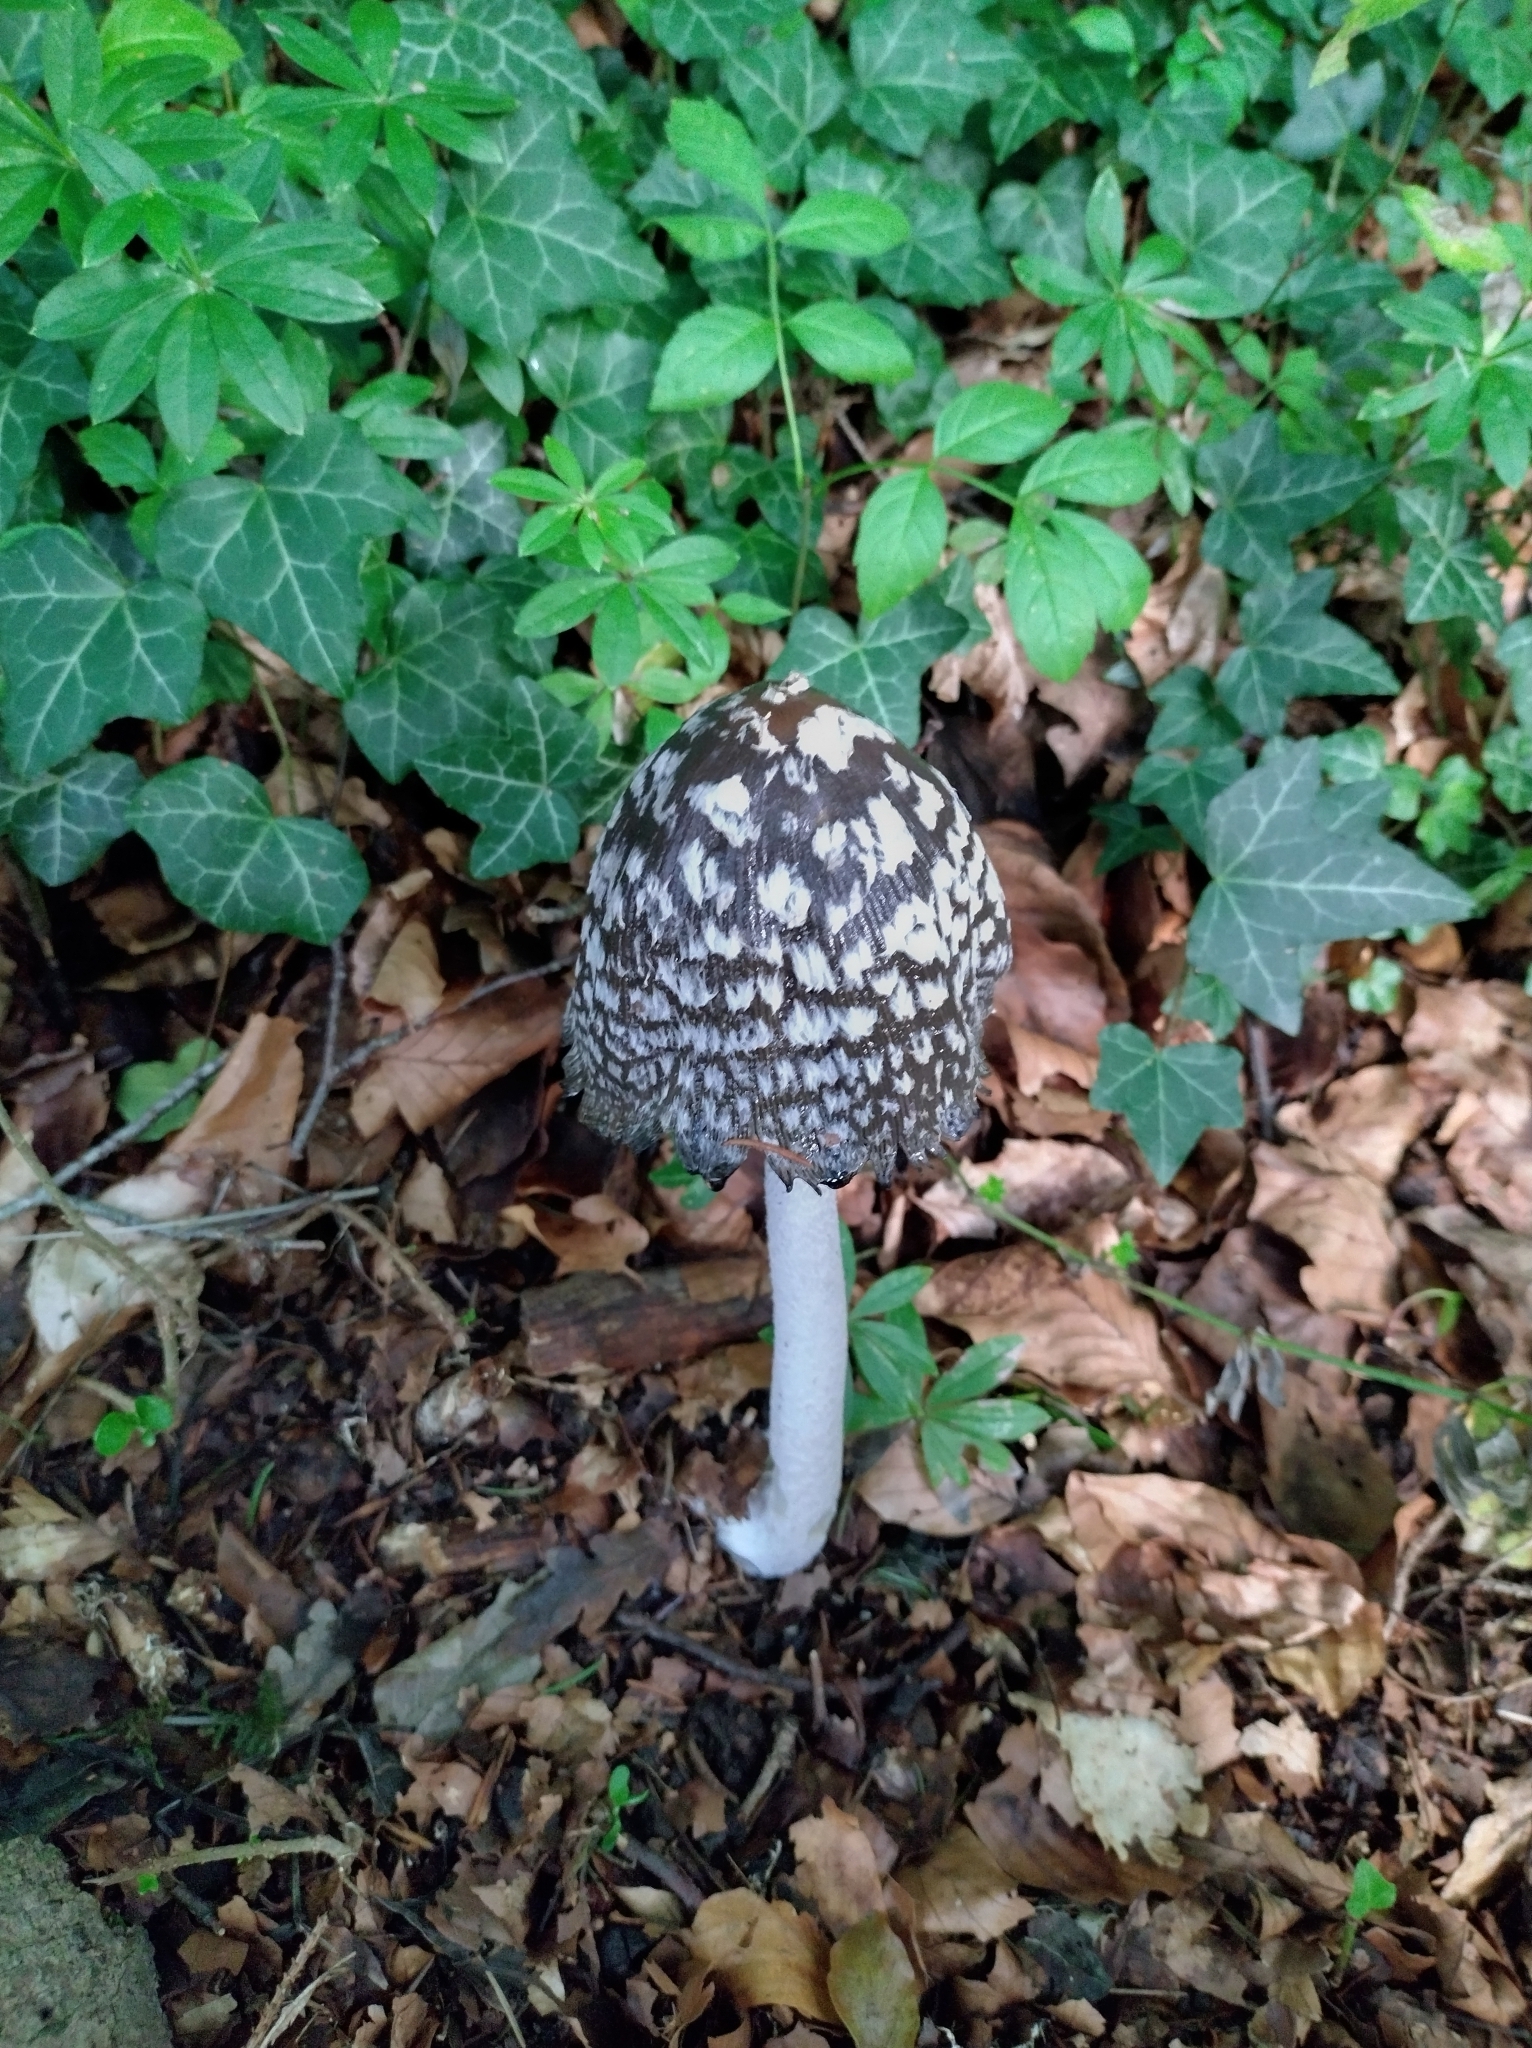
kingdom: Fungi
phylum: Basidiomycota
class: Agaricomycetes
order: Agaricales
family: Psathyrellaceae
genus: Coprinopsis
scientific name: Coprinopsis picacea
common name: Magpie inkcap
